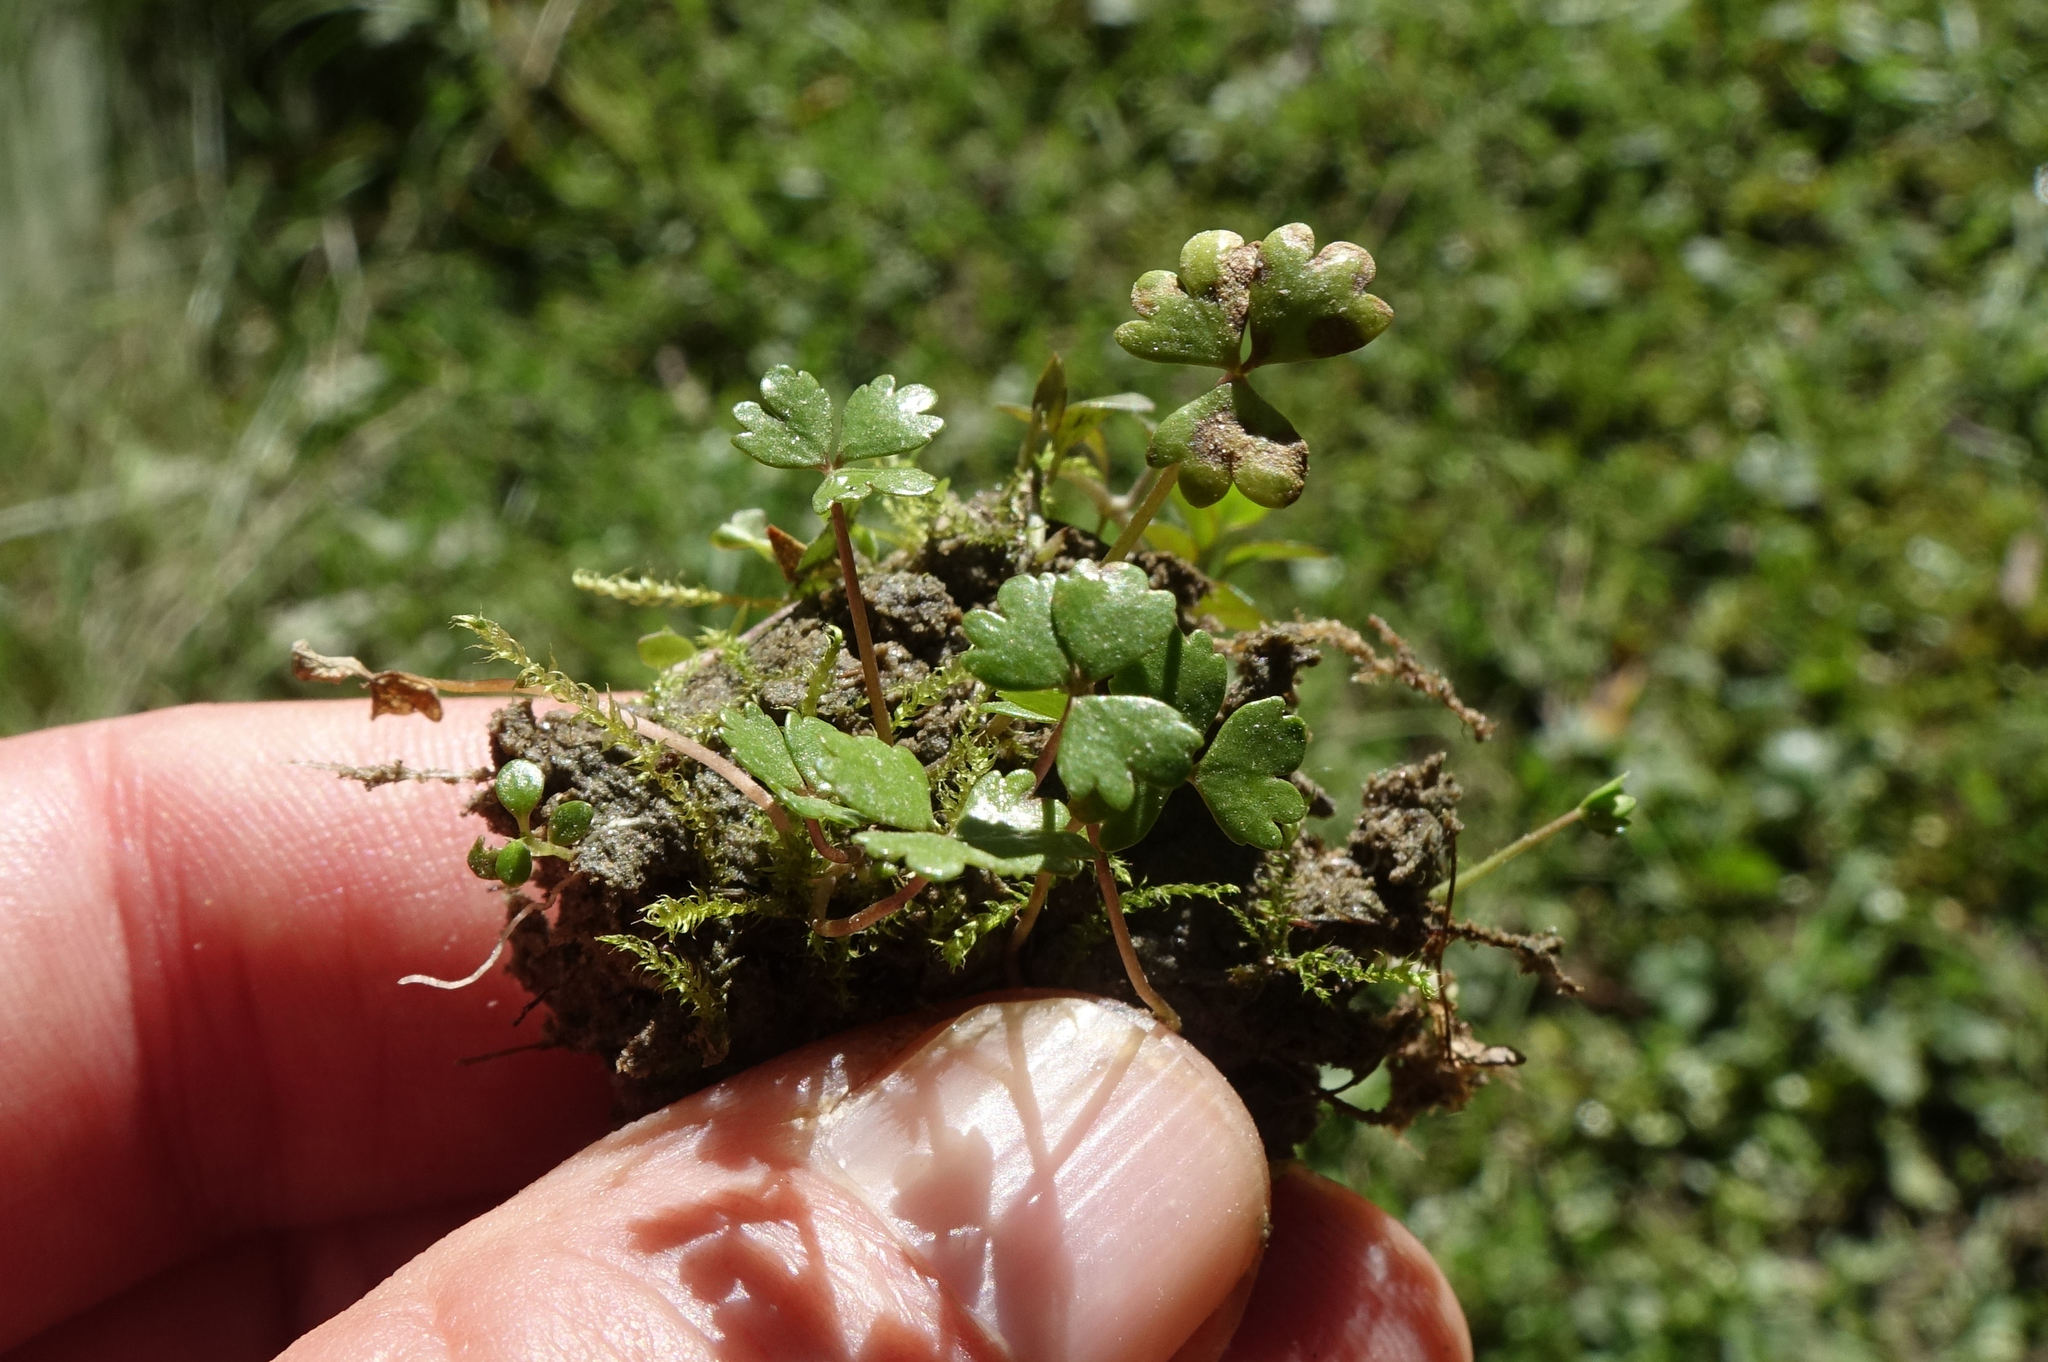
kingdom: Plantae
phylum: Tracheophyta
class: Magnoliopsida
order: Apiales
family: Araliaceae
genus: Hydrocotyle
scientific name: Hydrocotyle sulcata
